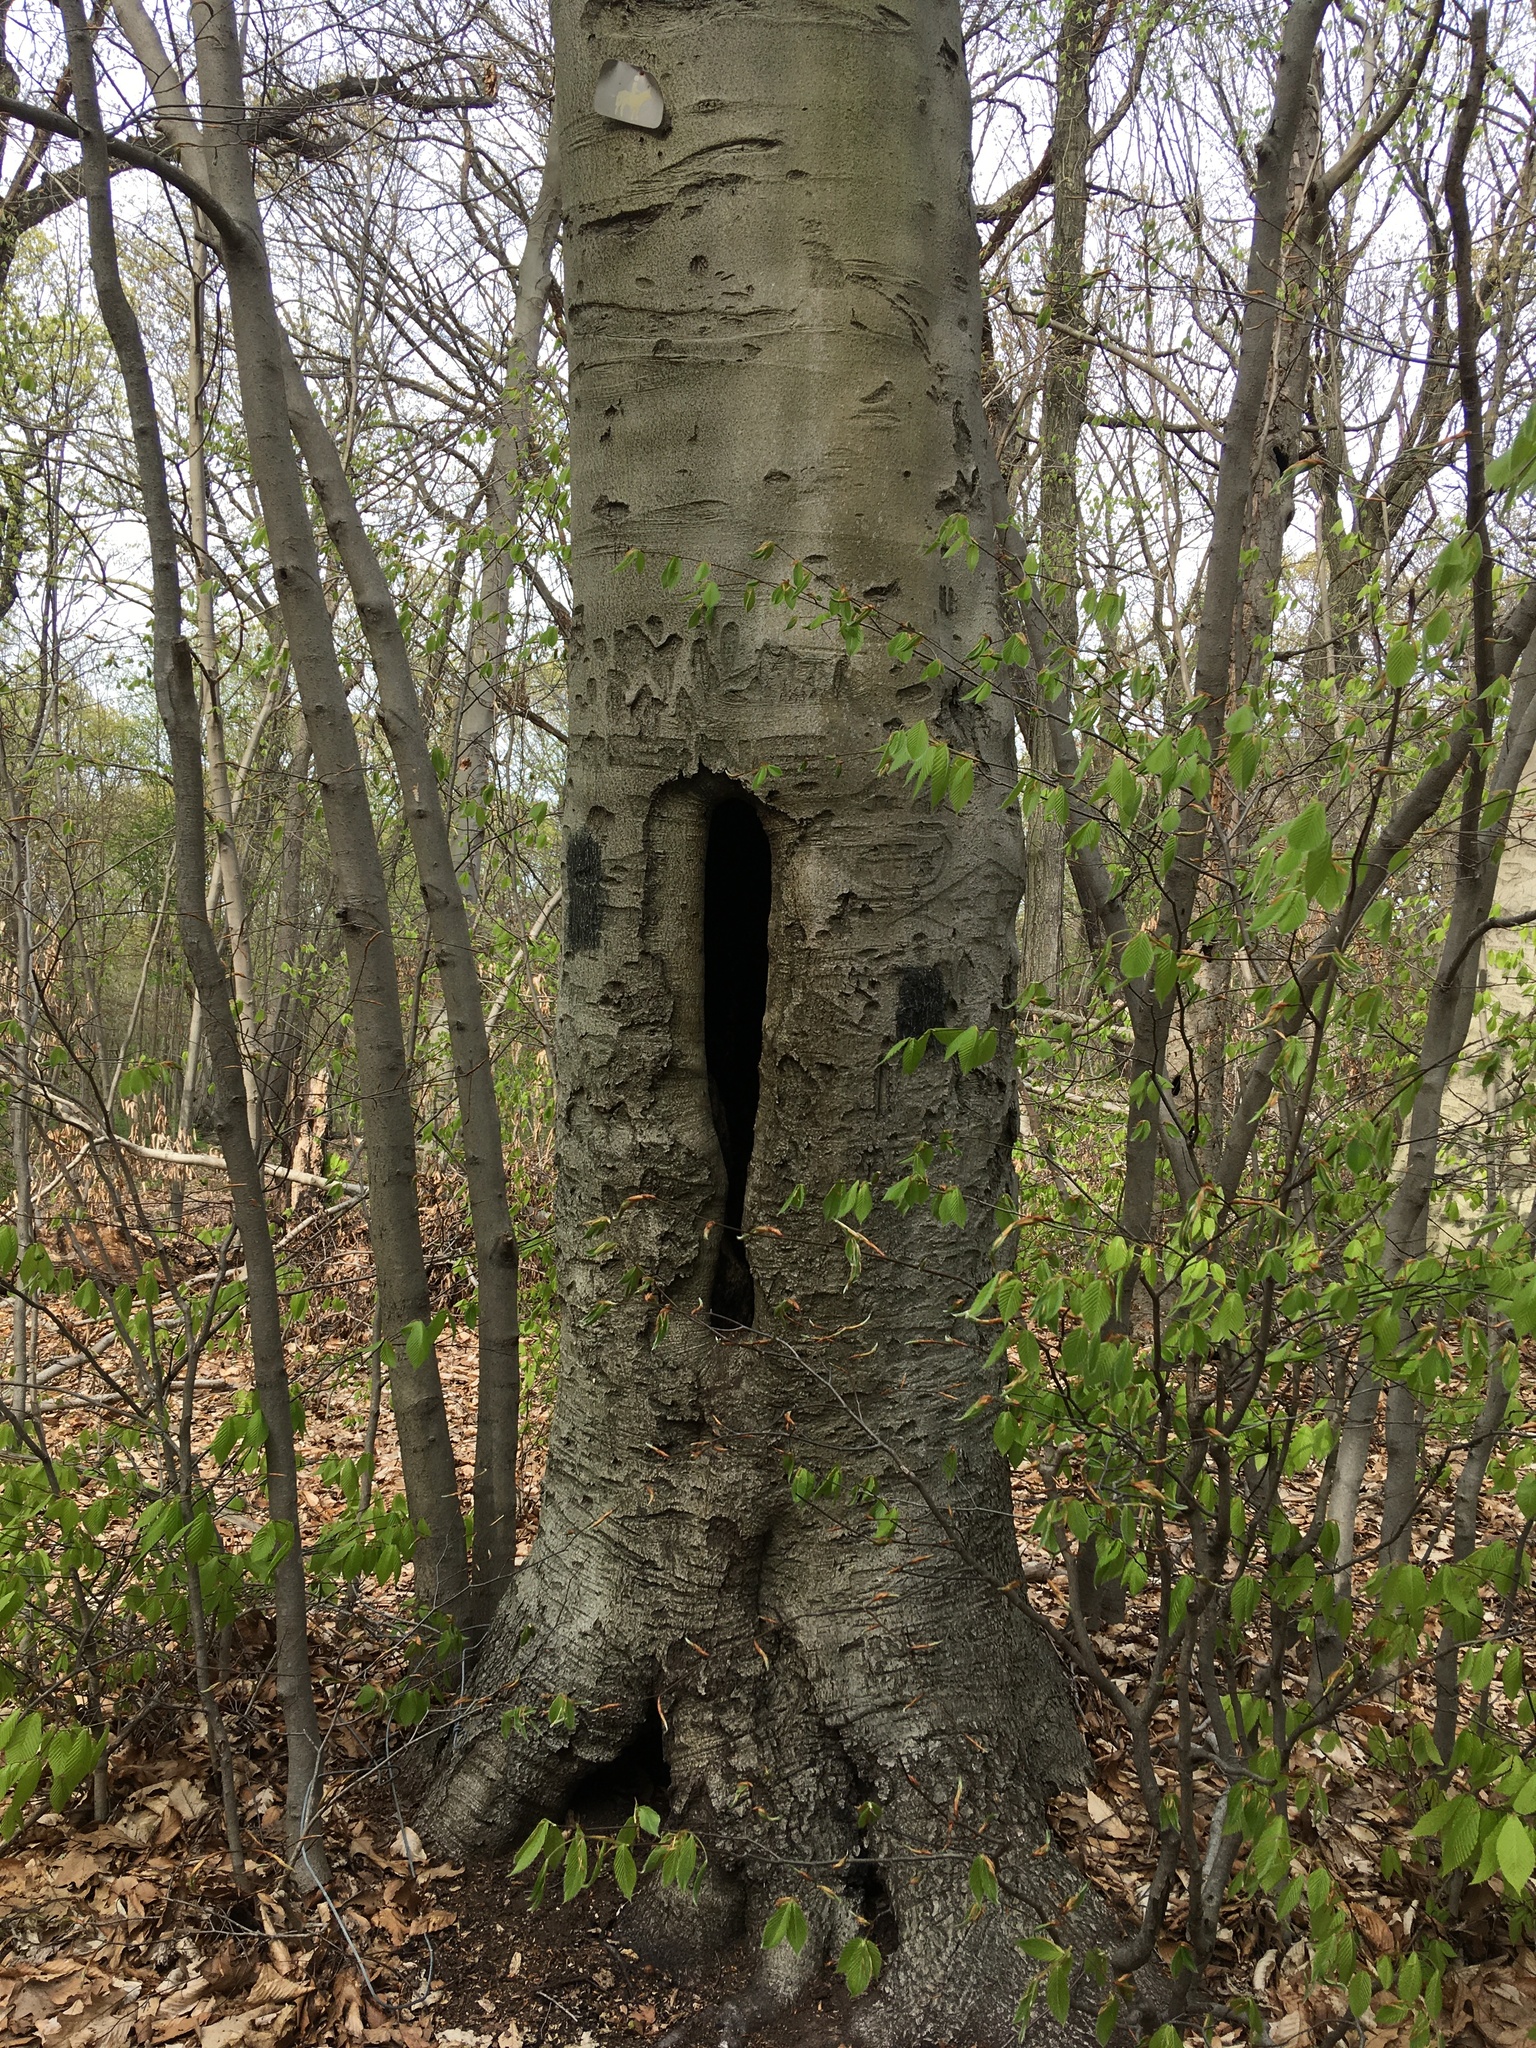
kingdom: Plantae
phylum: Tracheophyta
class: Magnoliopsida
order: Fagales
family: Fagaceae
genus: Fagus
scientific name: Fagus grandifolia
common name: American beech
